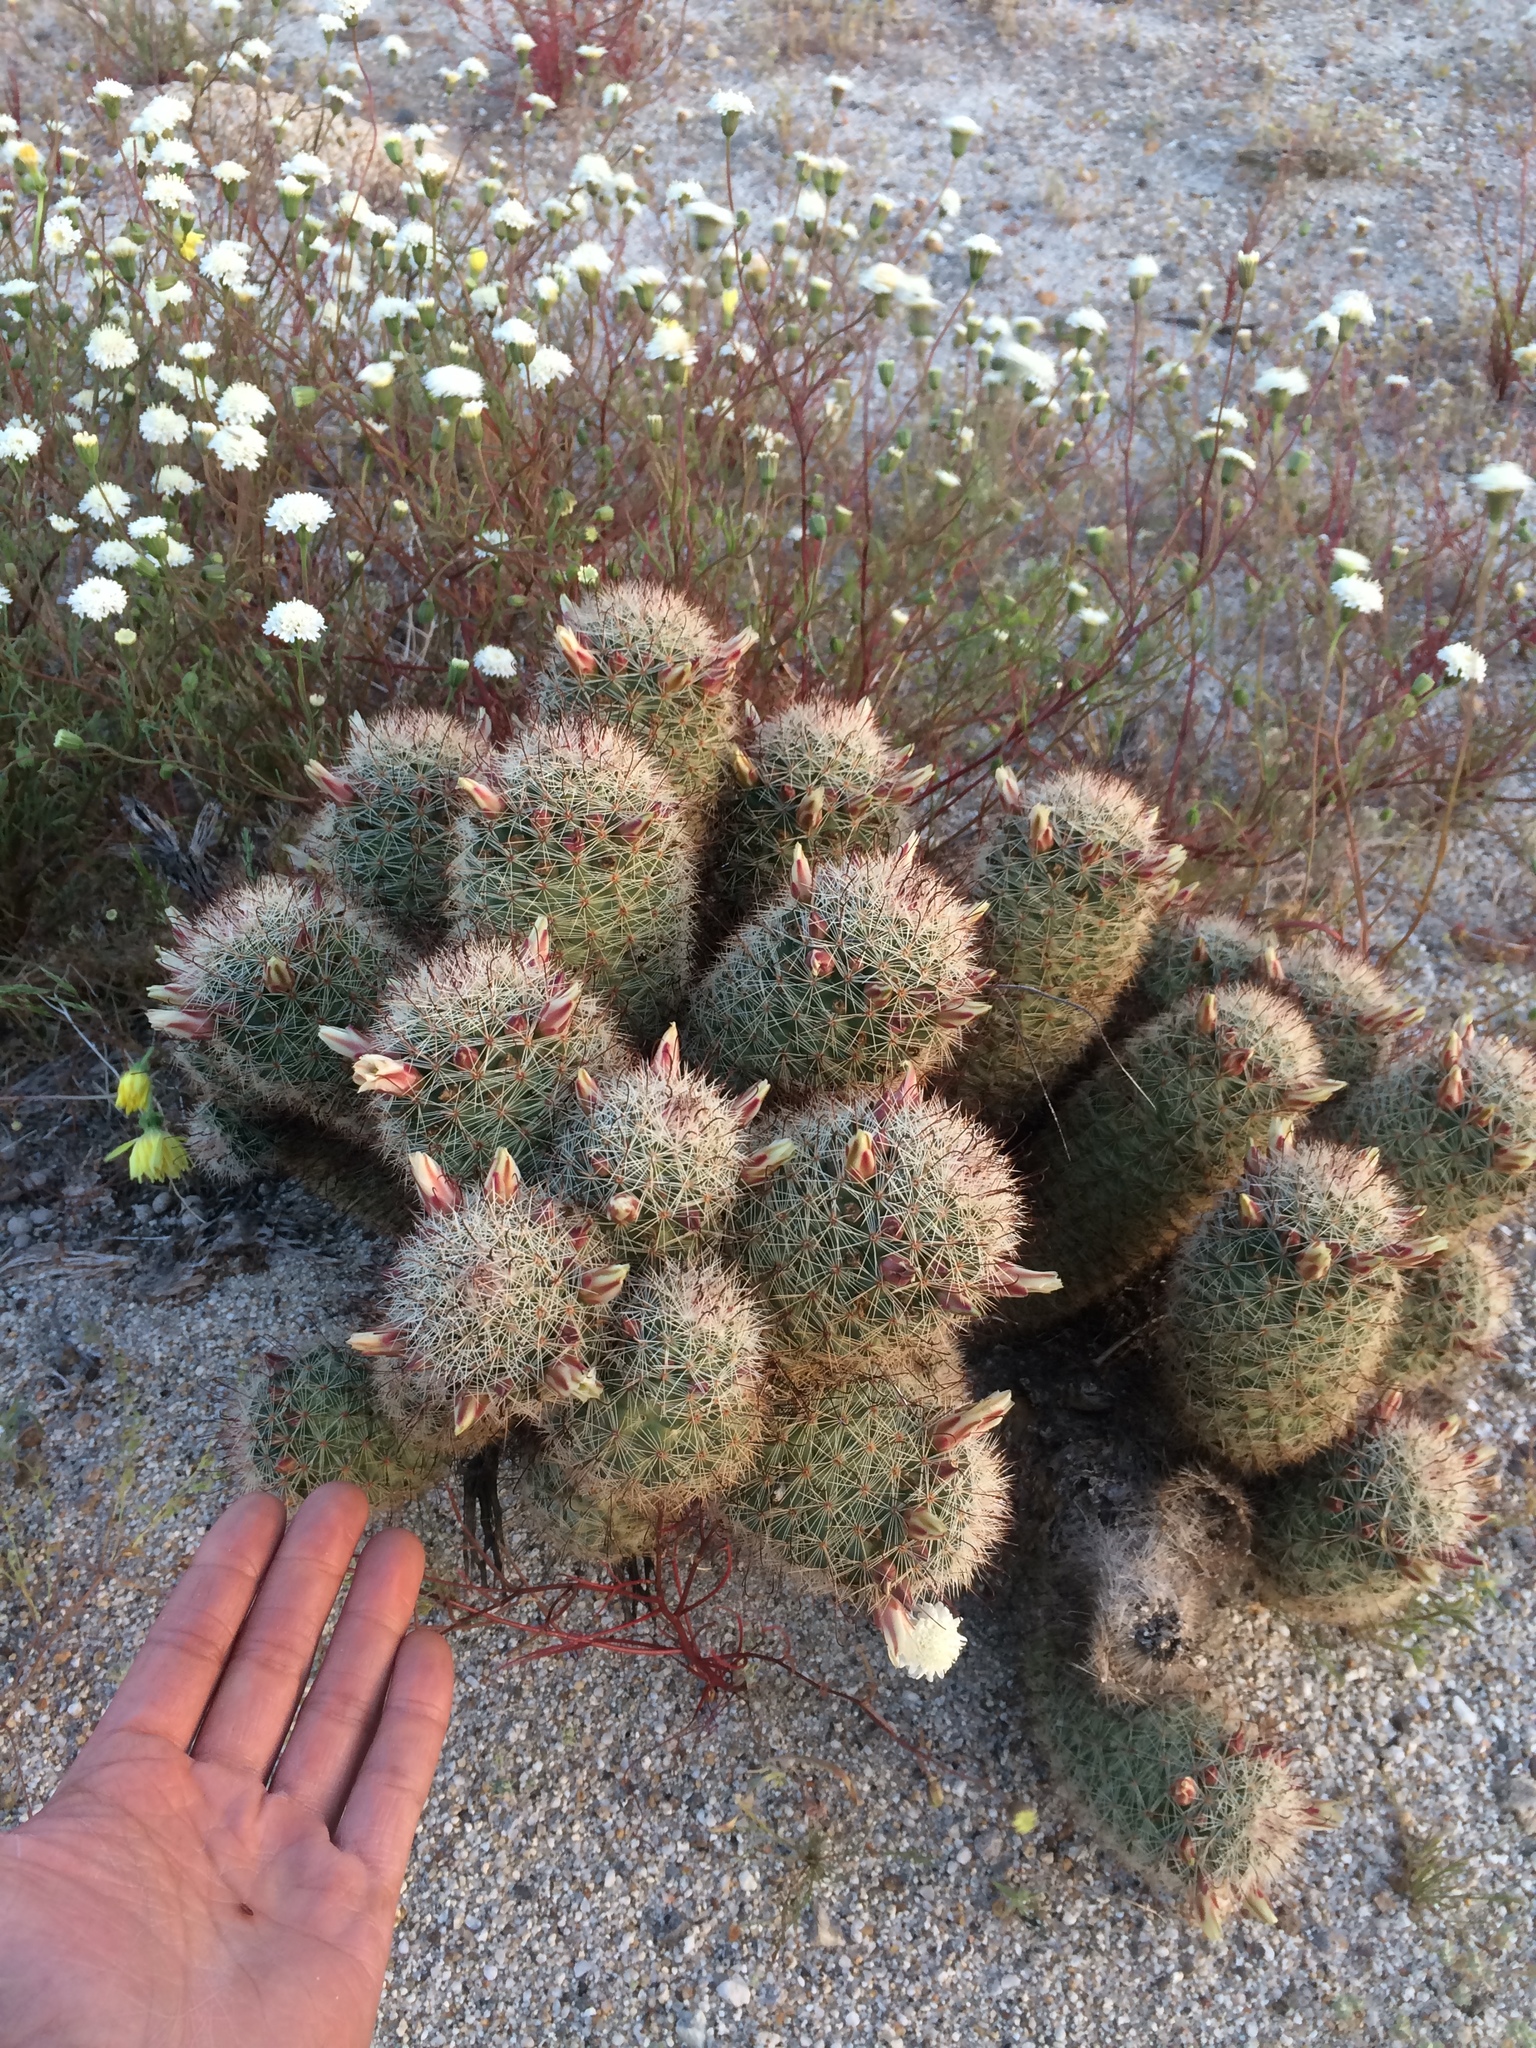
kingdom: Plantae
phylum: Tracheophyta
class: Magnoliopsida
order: Caryophyllales
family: Cactaceae
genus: Cochemiea
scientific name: Cochemiea dioica
